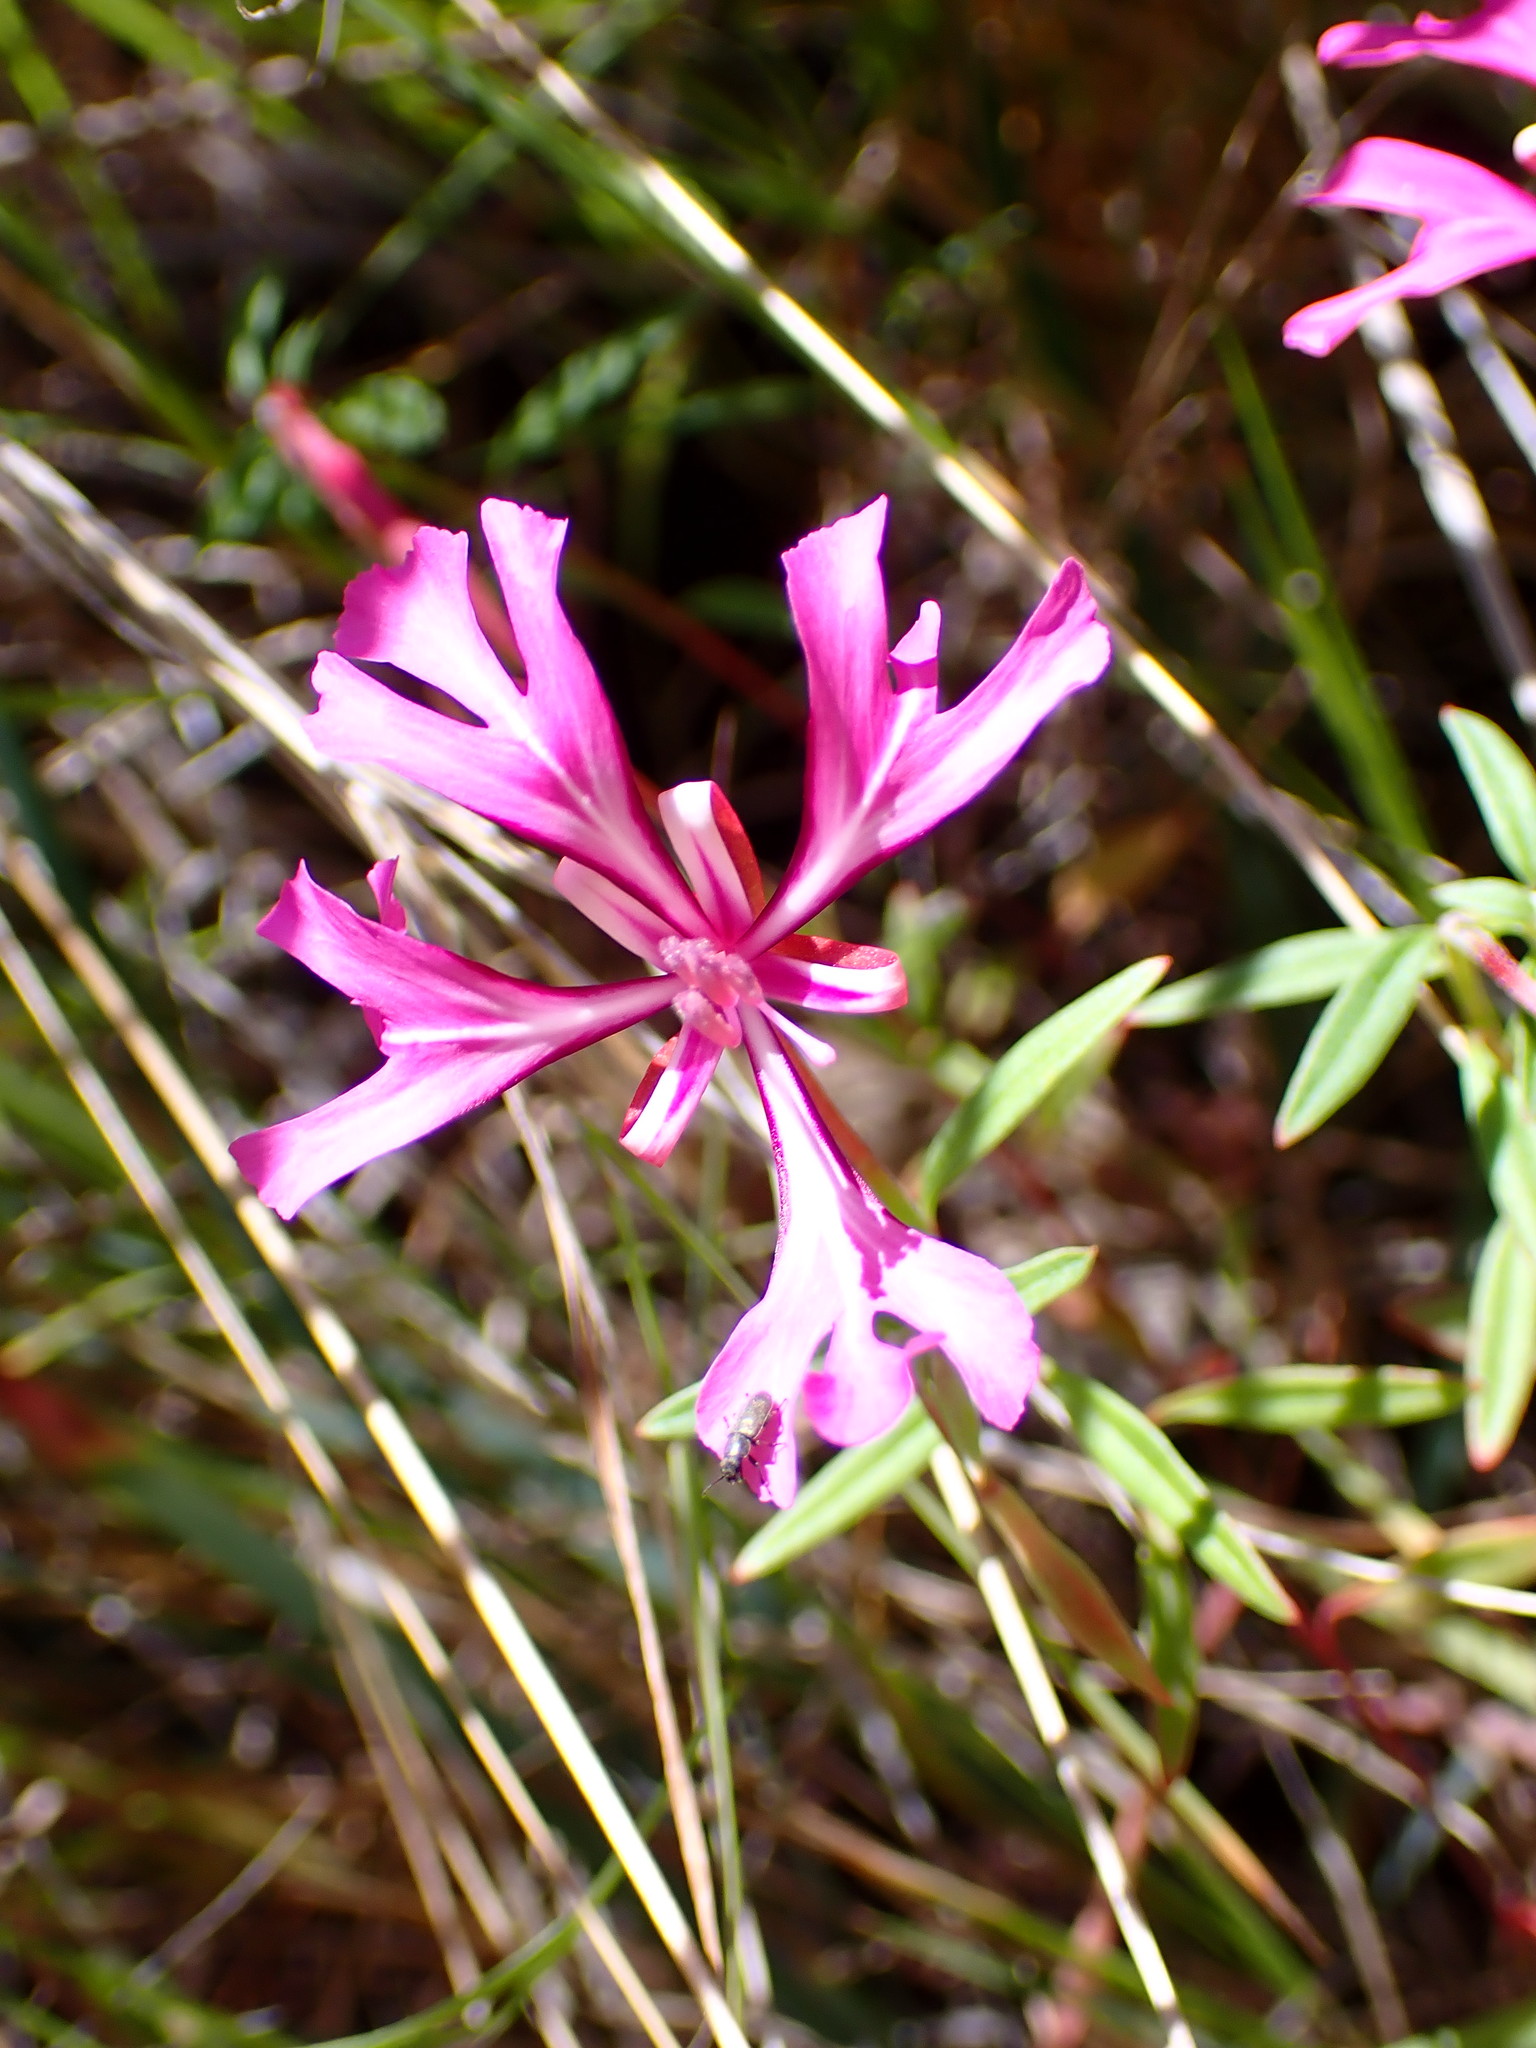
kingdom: Plantae
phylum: Tracheophyta
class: Magnoliopsida
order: Myrtales
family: Onagraceae
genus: Clarkia
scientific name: Clarkia concinna
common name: Red-ribbons
